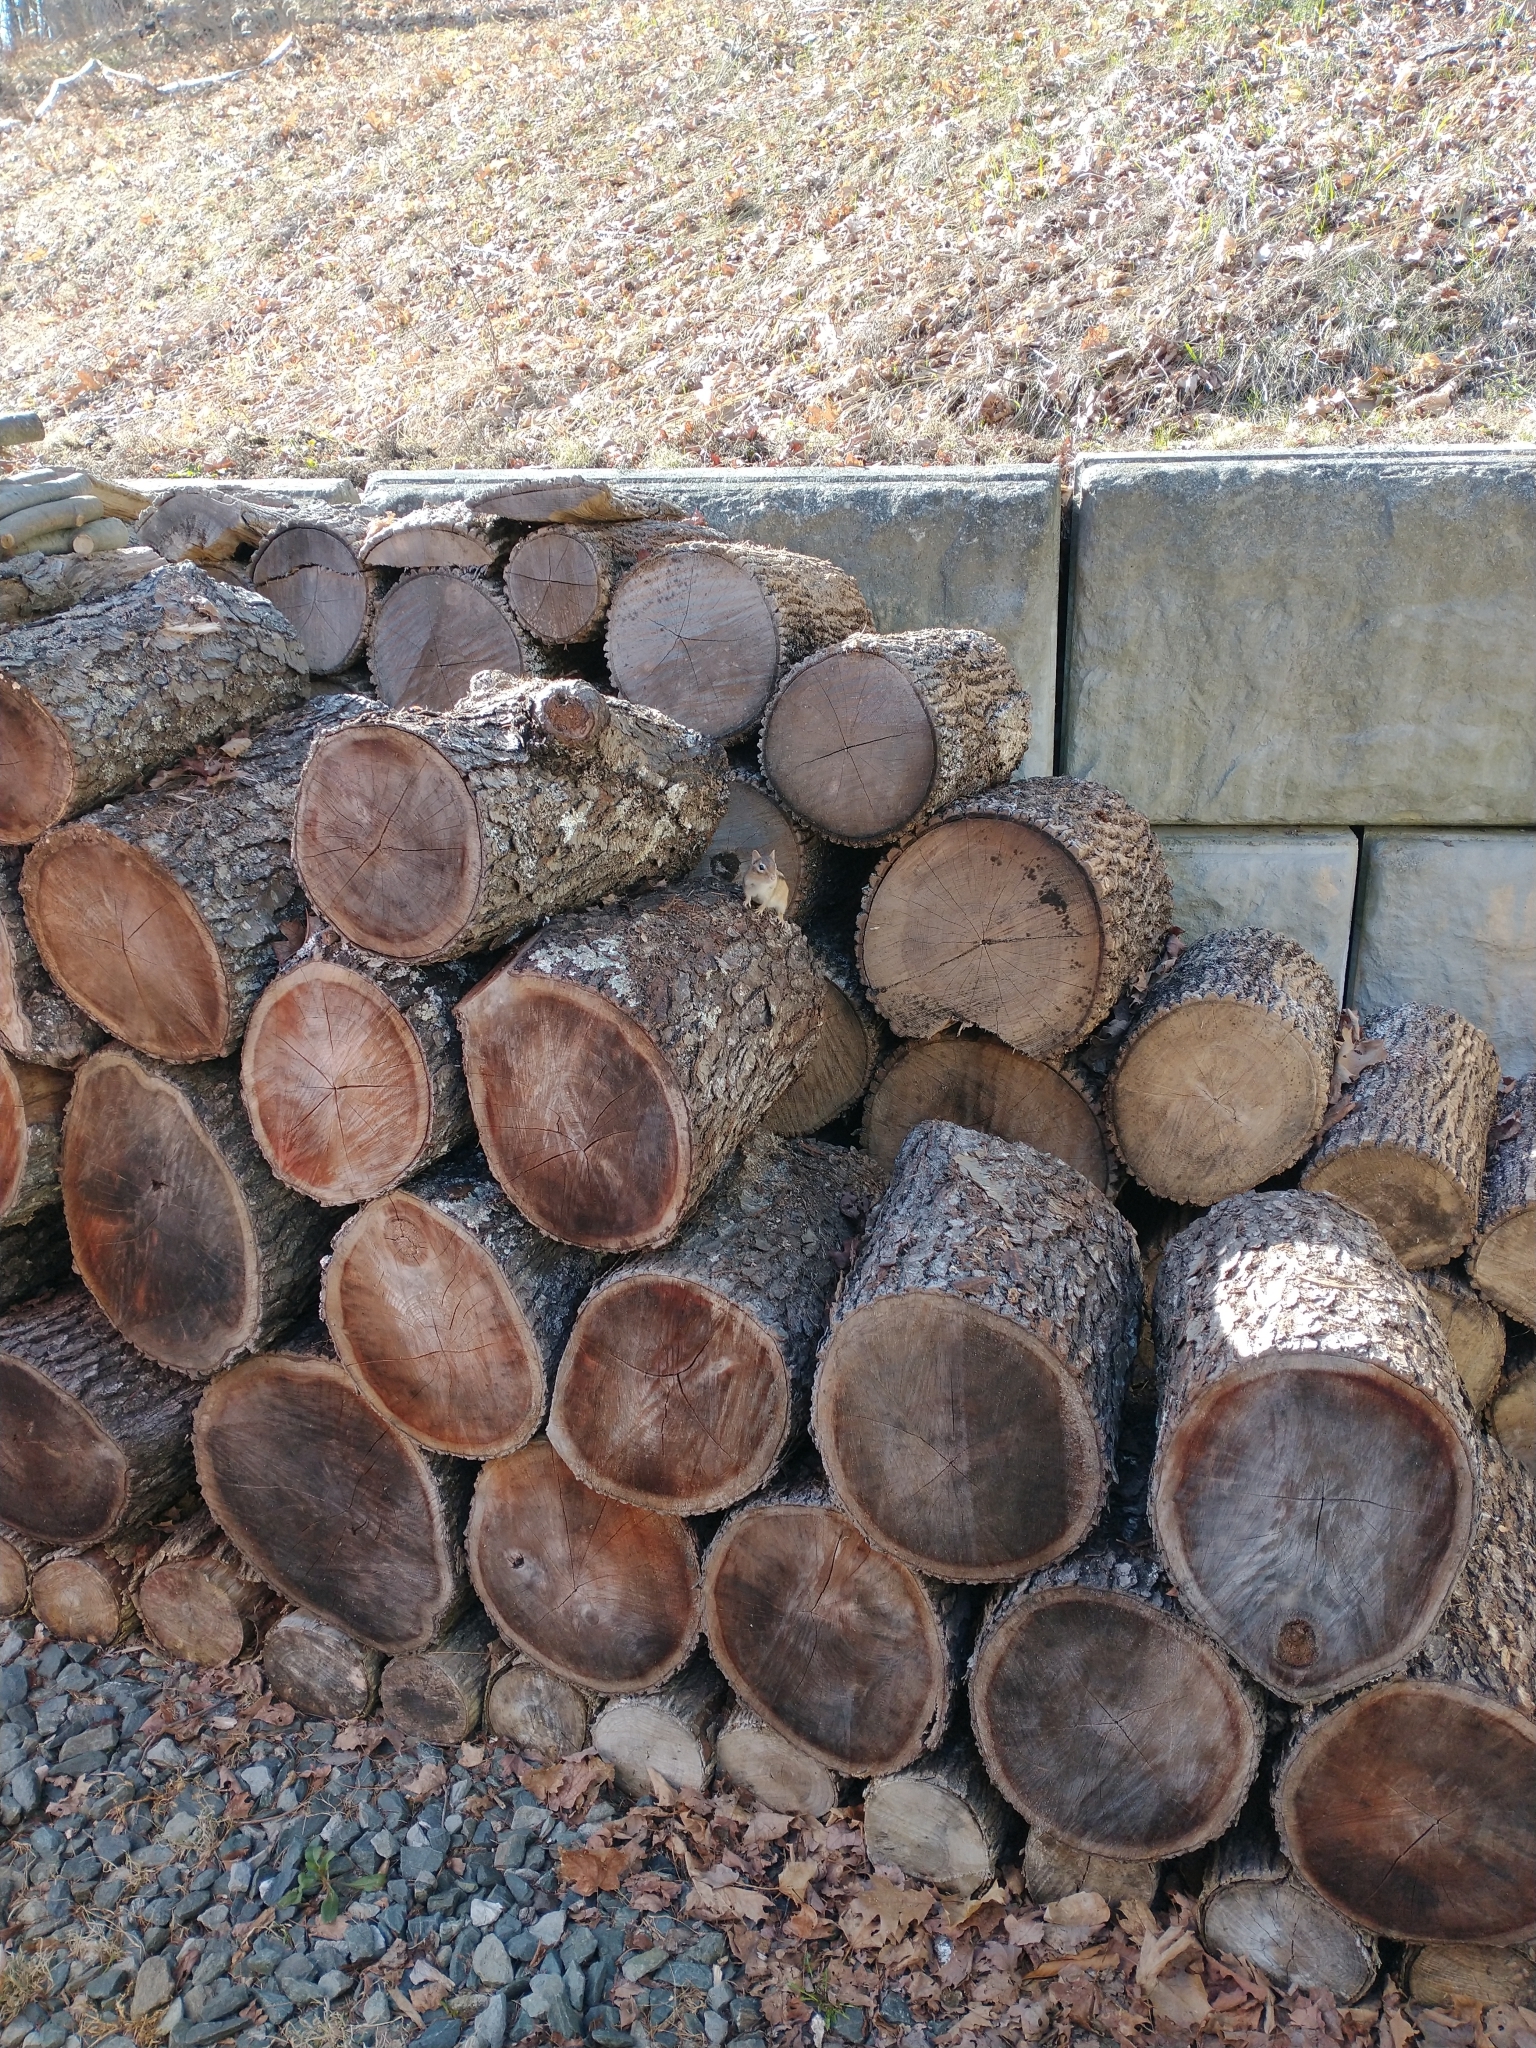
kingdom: Animalia
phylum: Chordata
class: Mammalia
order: Rodentia
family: Sciuridae
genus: Tamias
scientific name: Tamias striatus
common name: Eastern chipmunk
